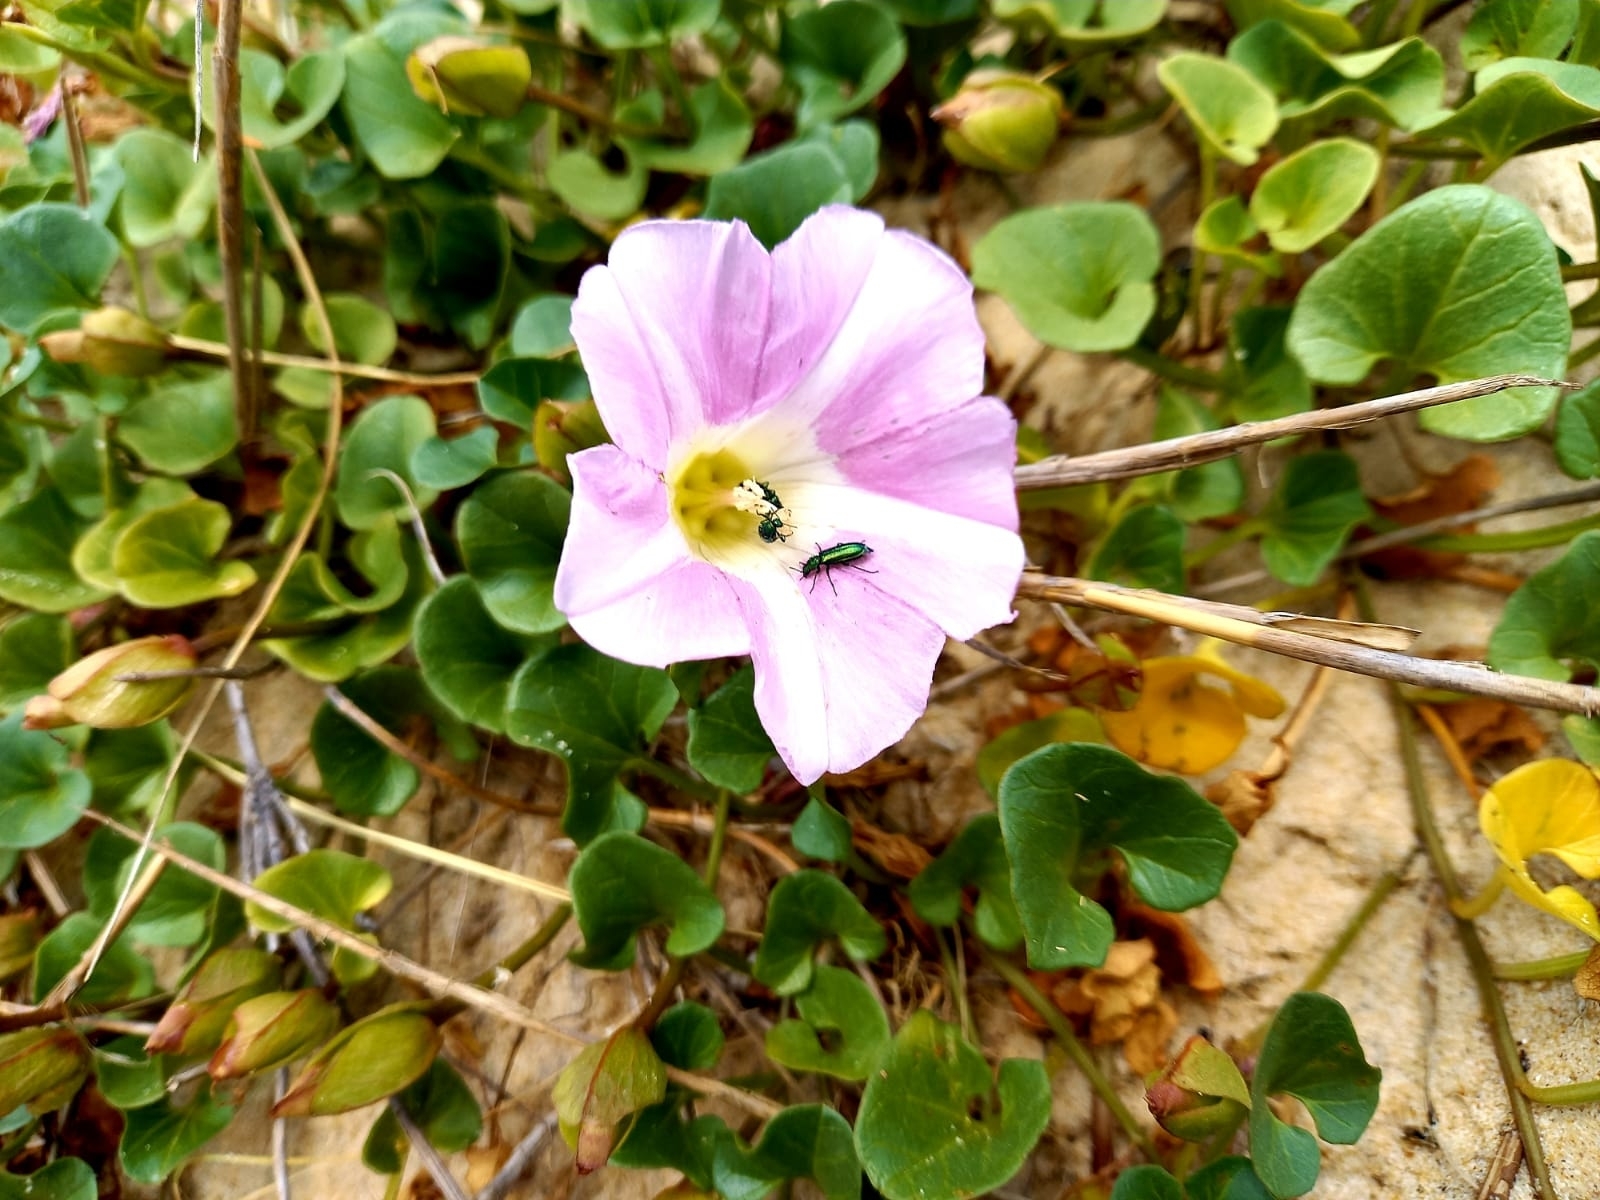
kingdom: Plantae
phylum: Tracheophyta
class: Magnoliopsida
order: Solanales
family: Convolvulaceae
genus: Calystegia
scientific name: Calystegia soldanella
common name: Sea bindweed
